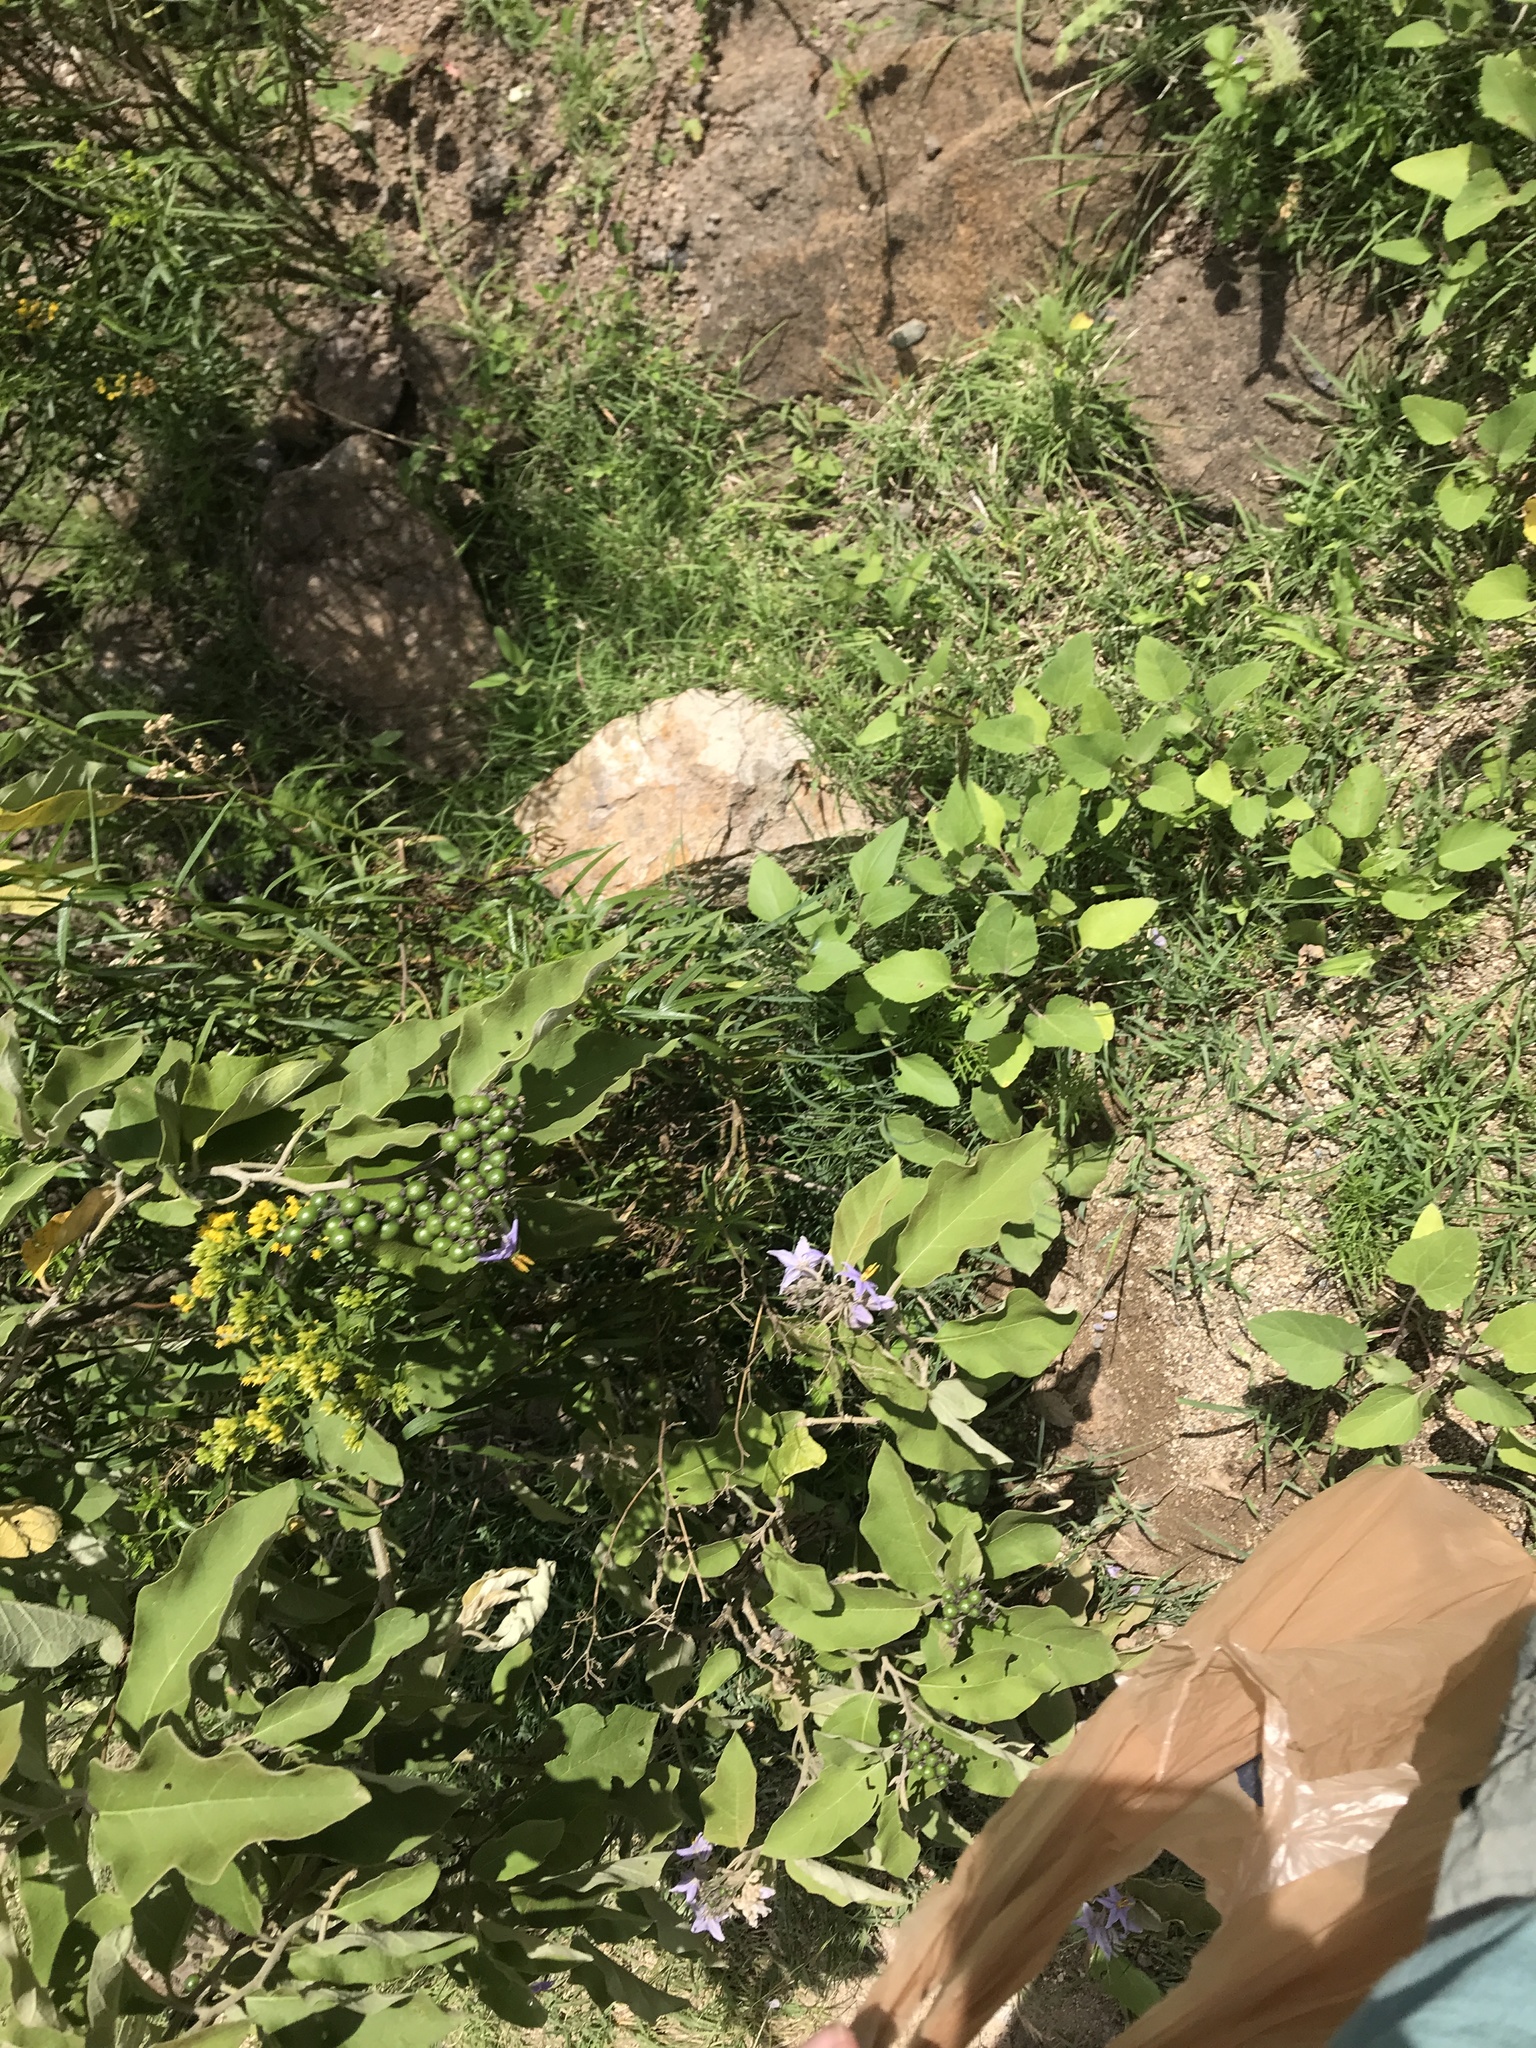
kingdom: Plantae
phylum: Tracheophyta
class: Magnoliopsida
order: Solanales
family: Solanaceae
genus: Solanum
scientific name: Solanum lanceolatum
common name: Orangeberry nightshade
